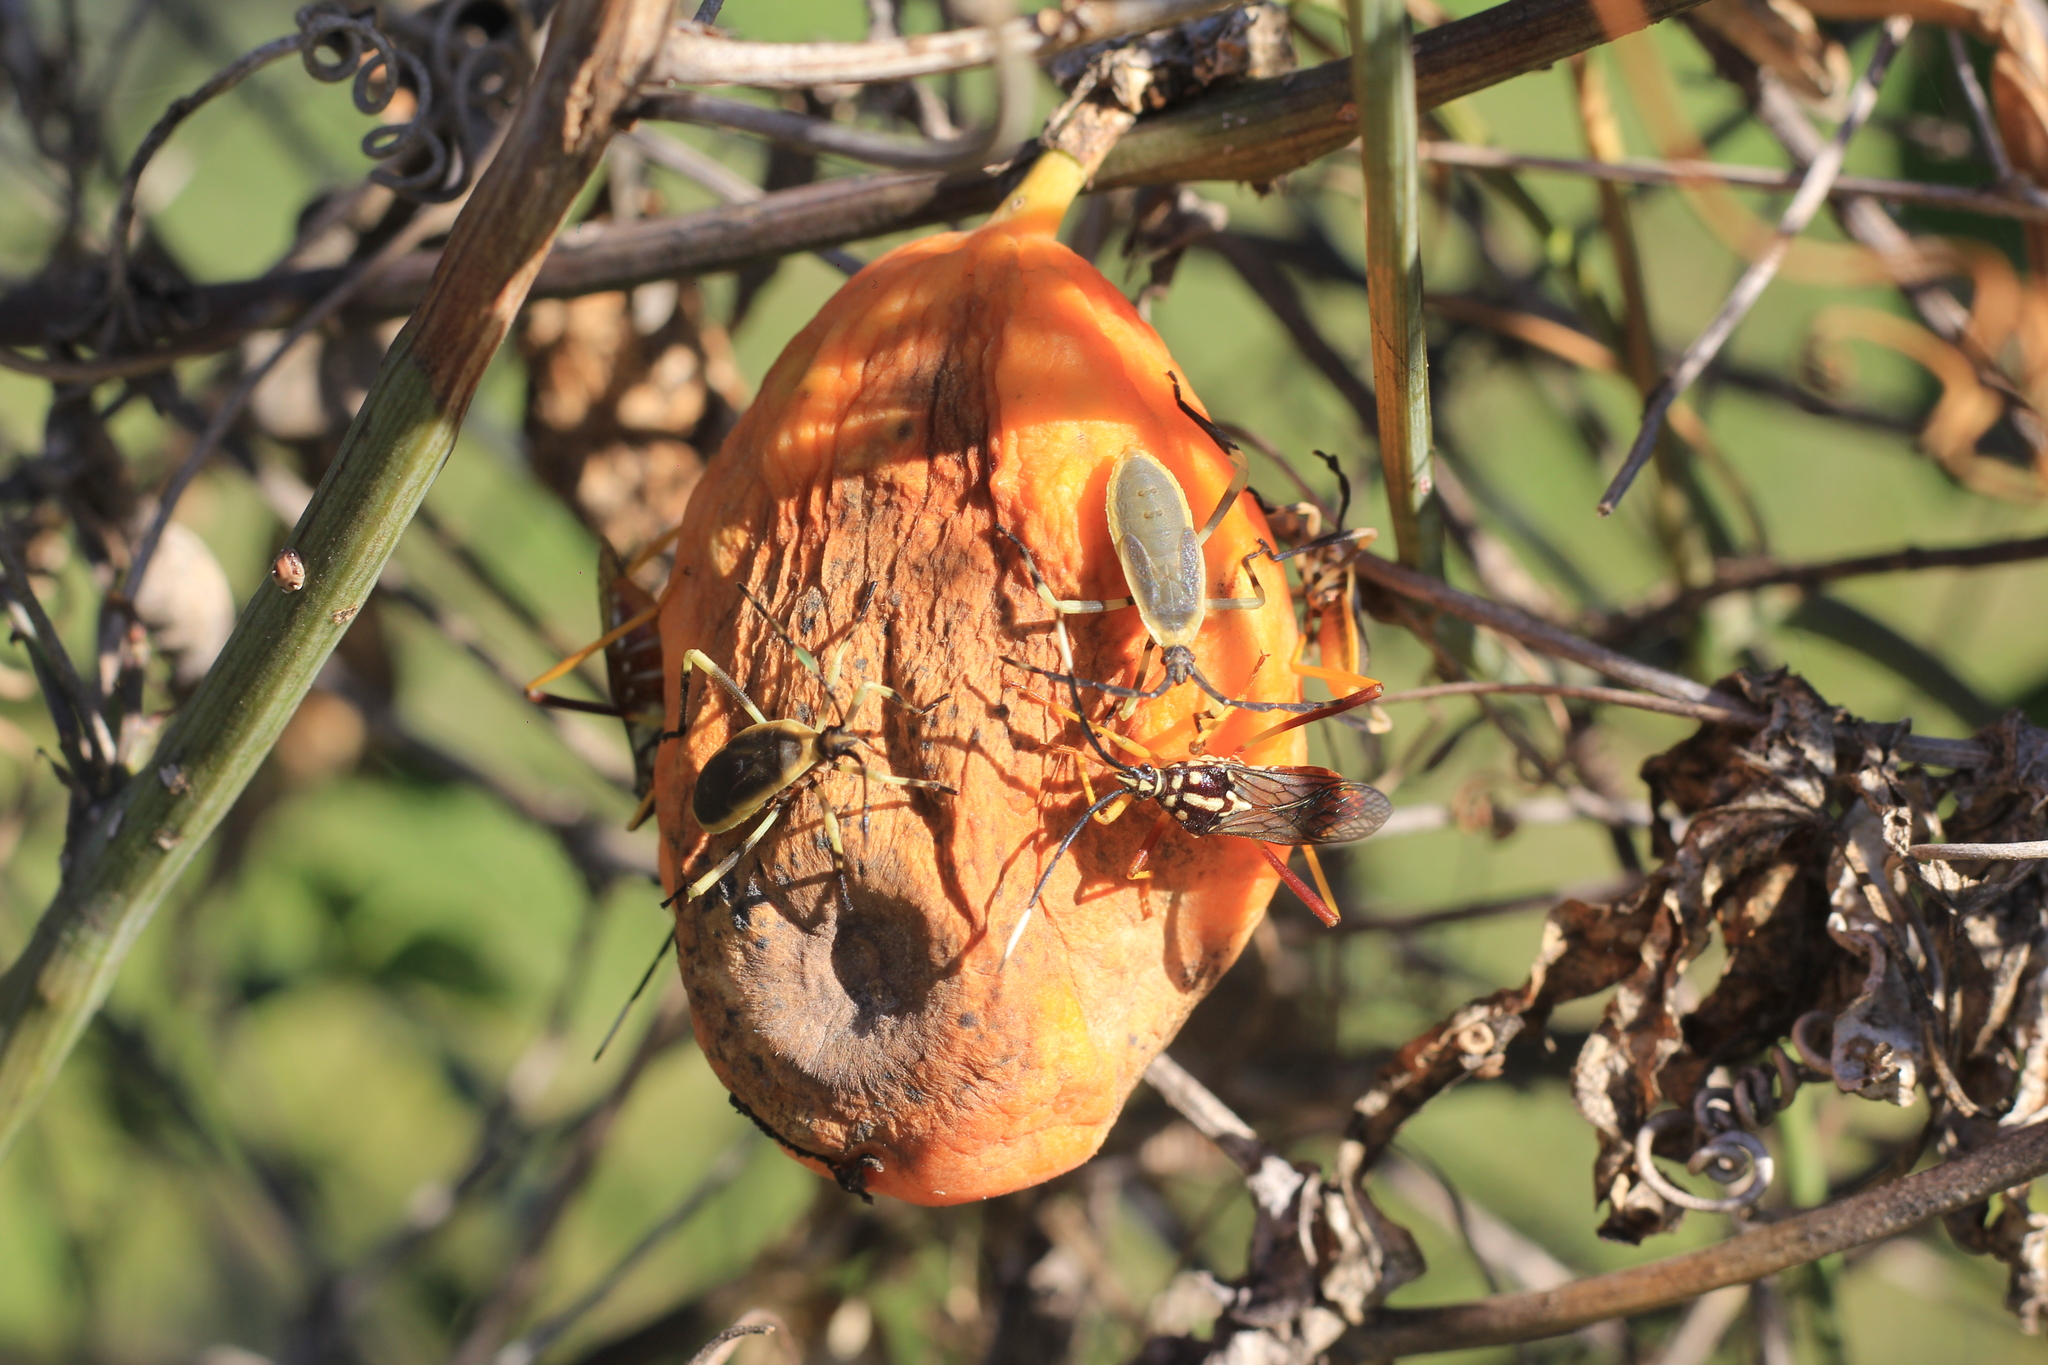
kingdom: Animalia
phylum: Arthropoda
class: Insecta
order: Hemiptera
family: Coreidae
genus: Holhymenia
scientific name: Holhymenia histrio
